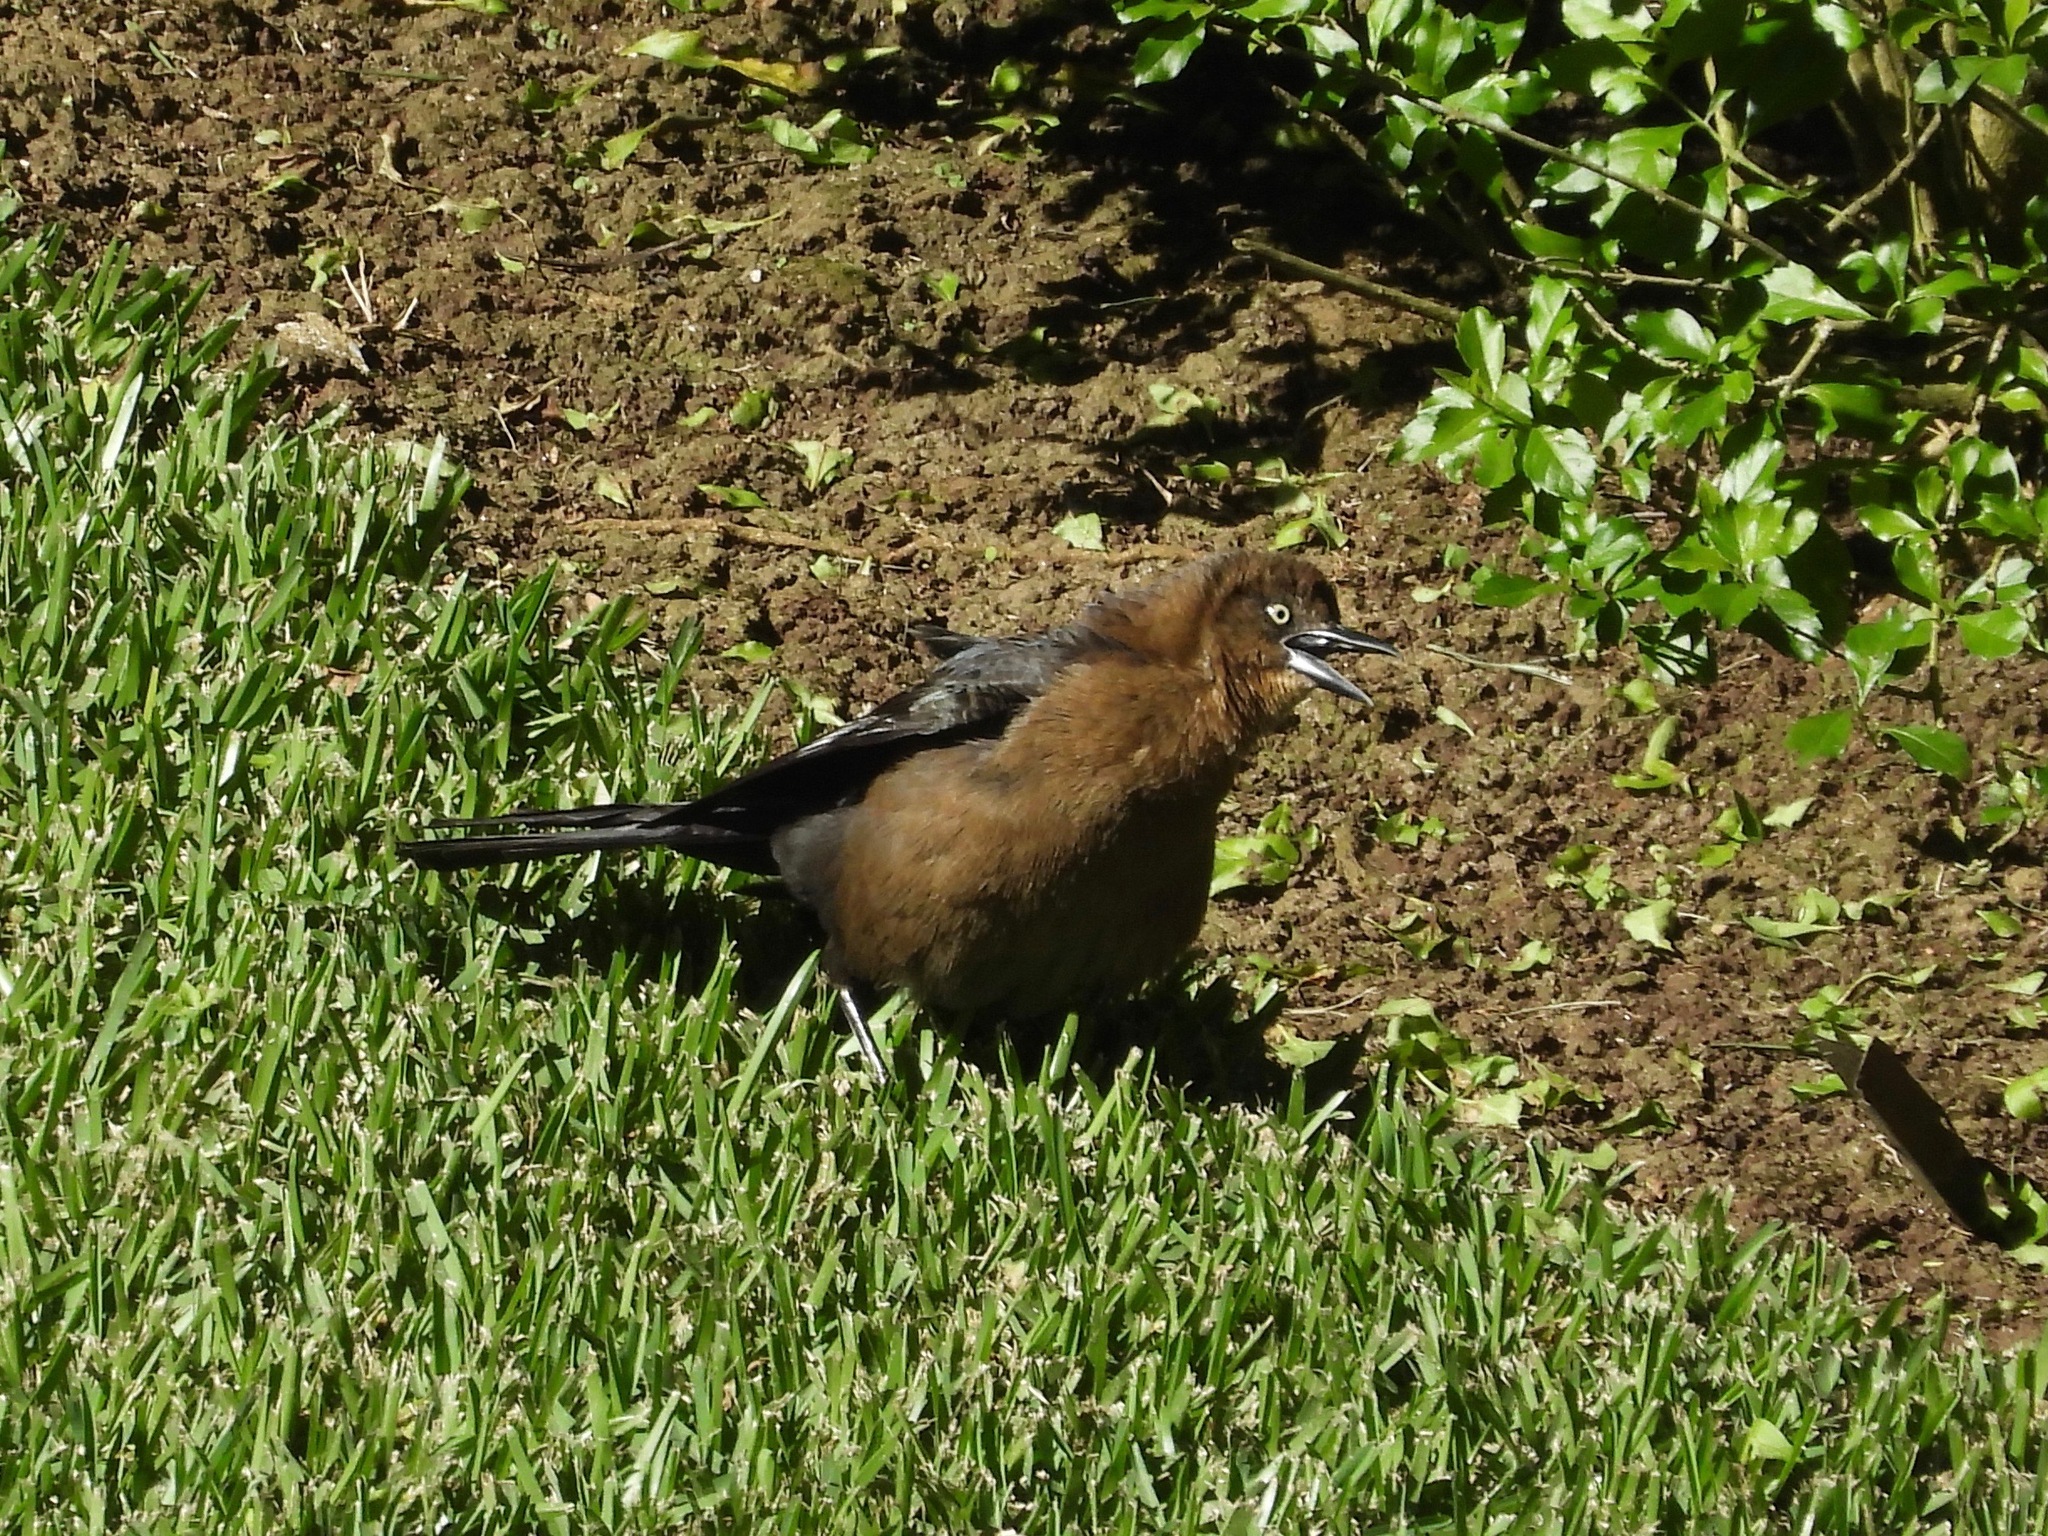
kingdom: Animalia
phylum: Chordata
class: Aves
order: Passeriformes
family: Icteridae
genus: Quiscalus
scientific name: Quiscalus mexicanus
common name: Great-tailed grackle
